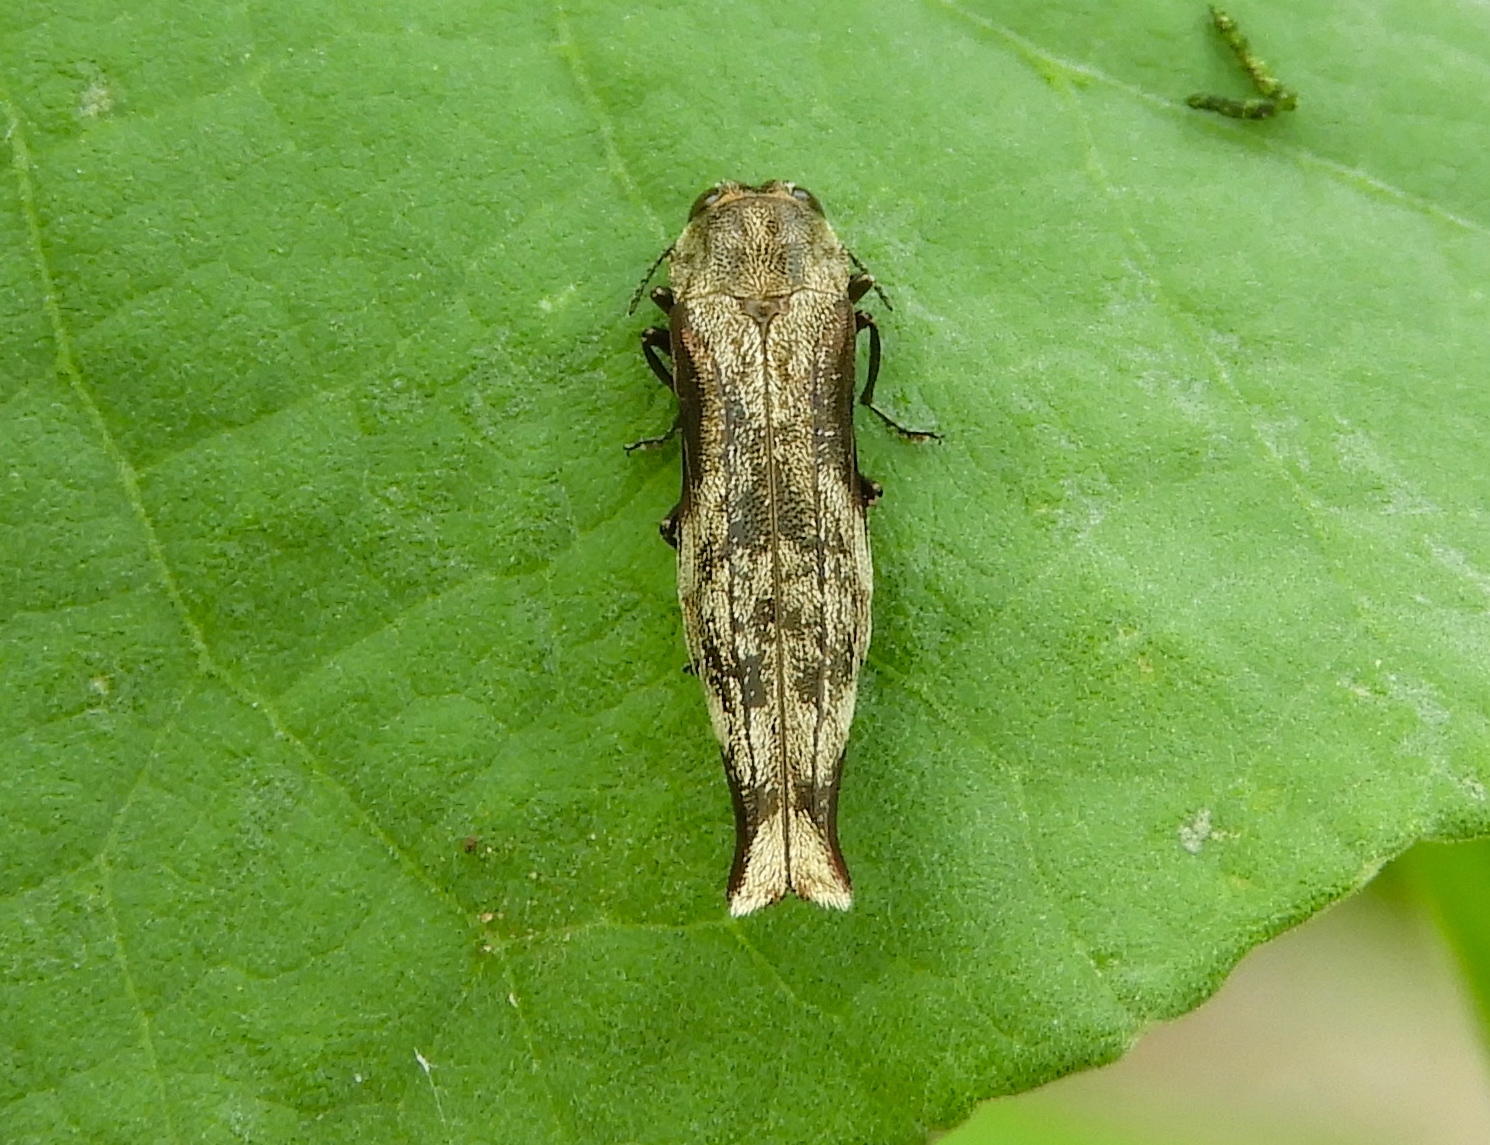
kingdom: Animalia
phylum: Arthropoda
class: Insecta
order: Coleoptera
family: Buprestidae
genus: Agrilus
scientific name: Agrilus langei
